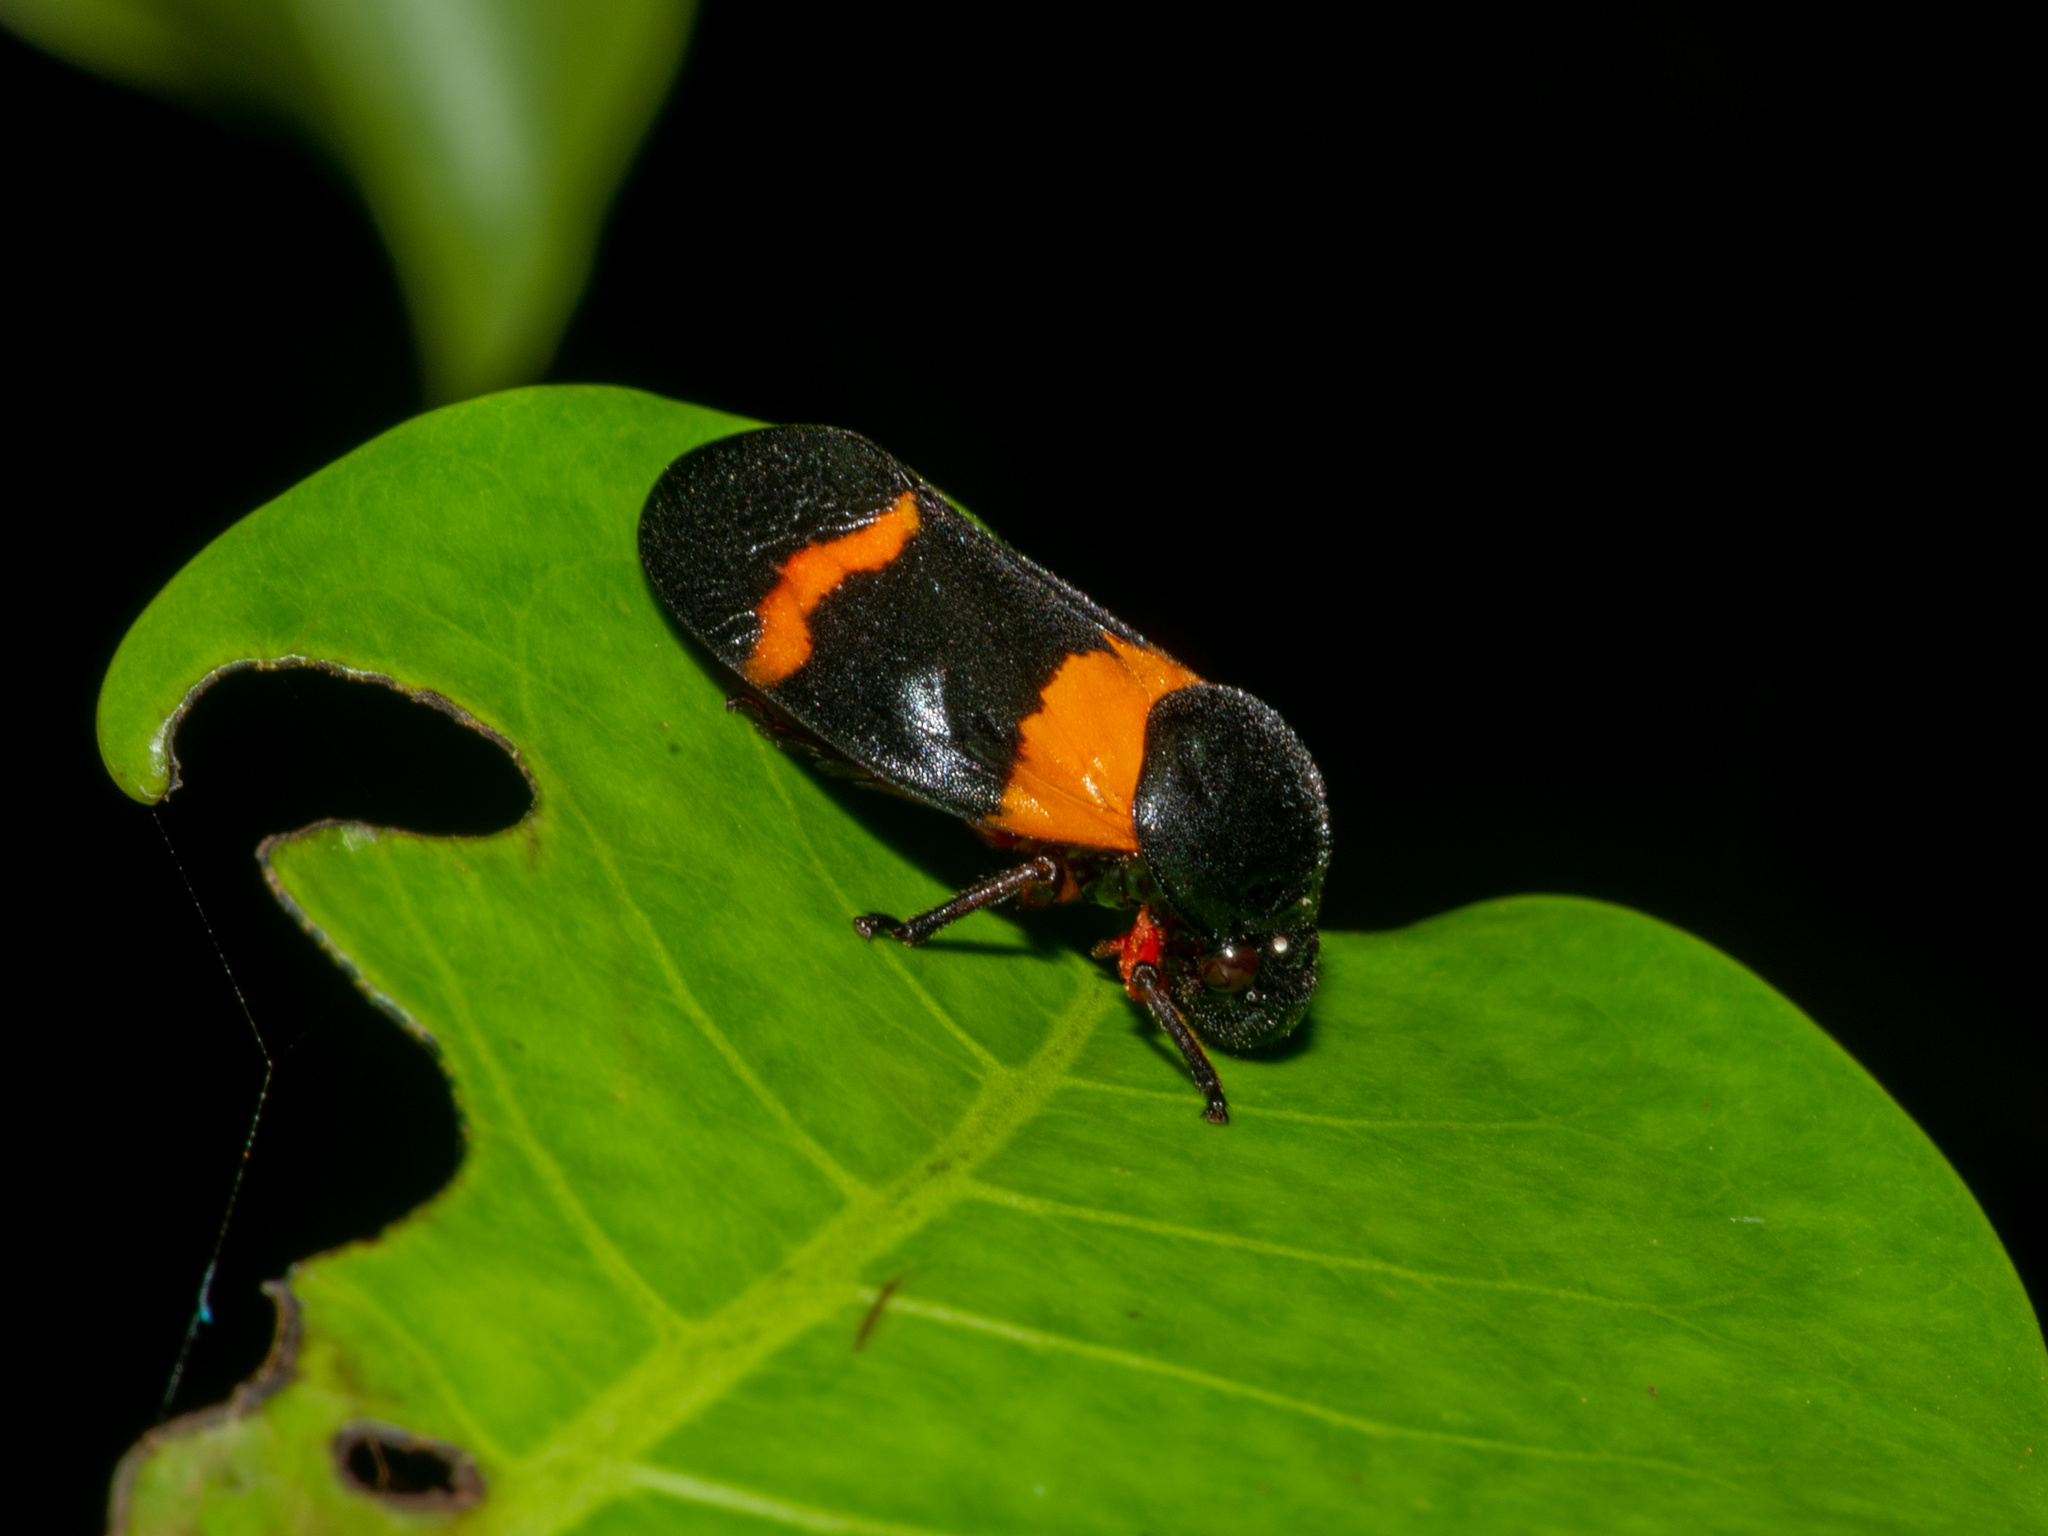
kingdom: Animalia
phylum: Arthropoda
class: Insecta
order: Hemiptera
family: Cercopidae
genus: Cosmoscarta
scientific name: Cosmoscarta abdominalis
